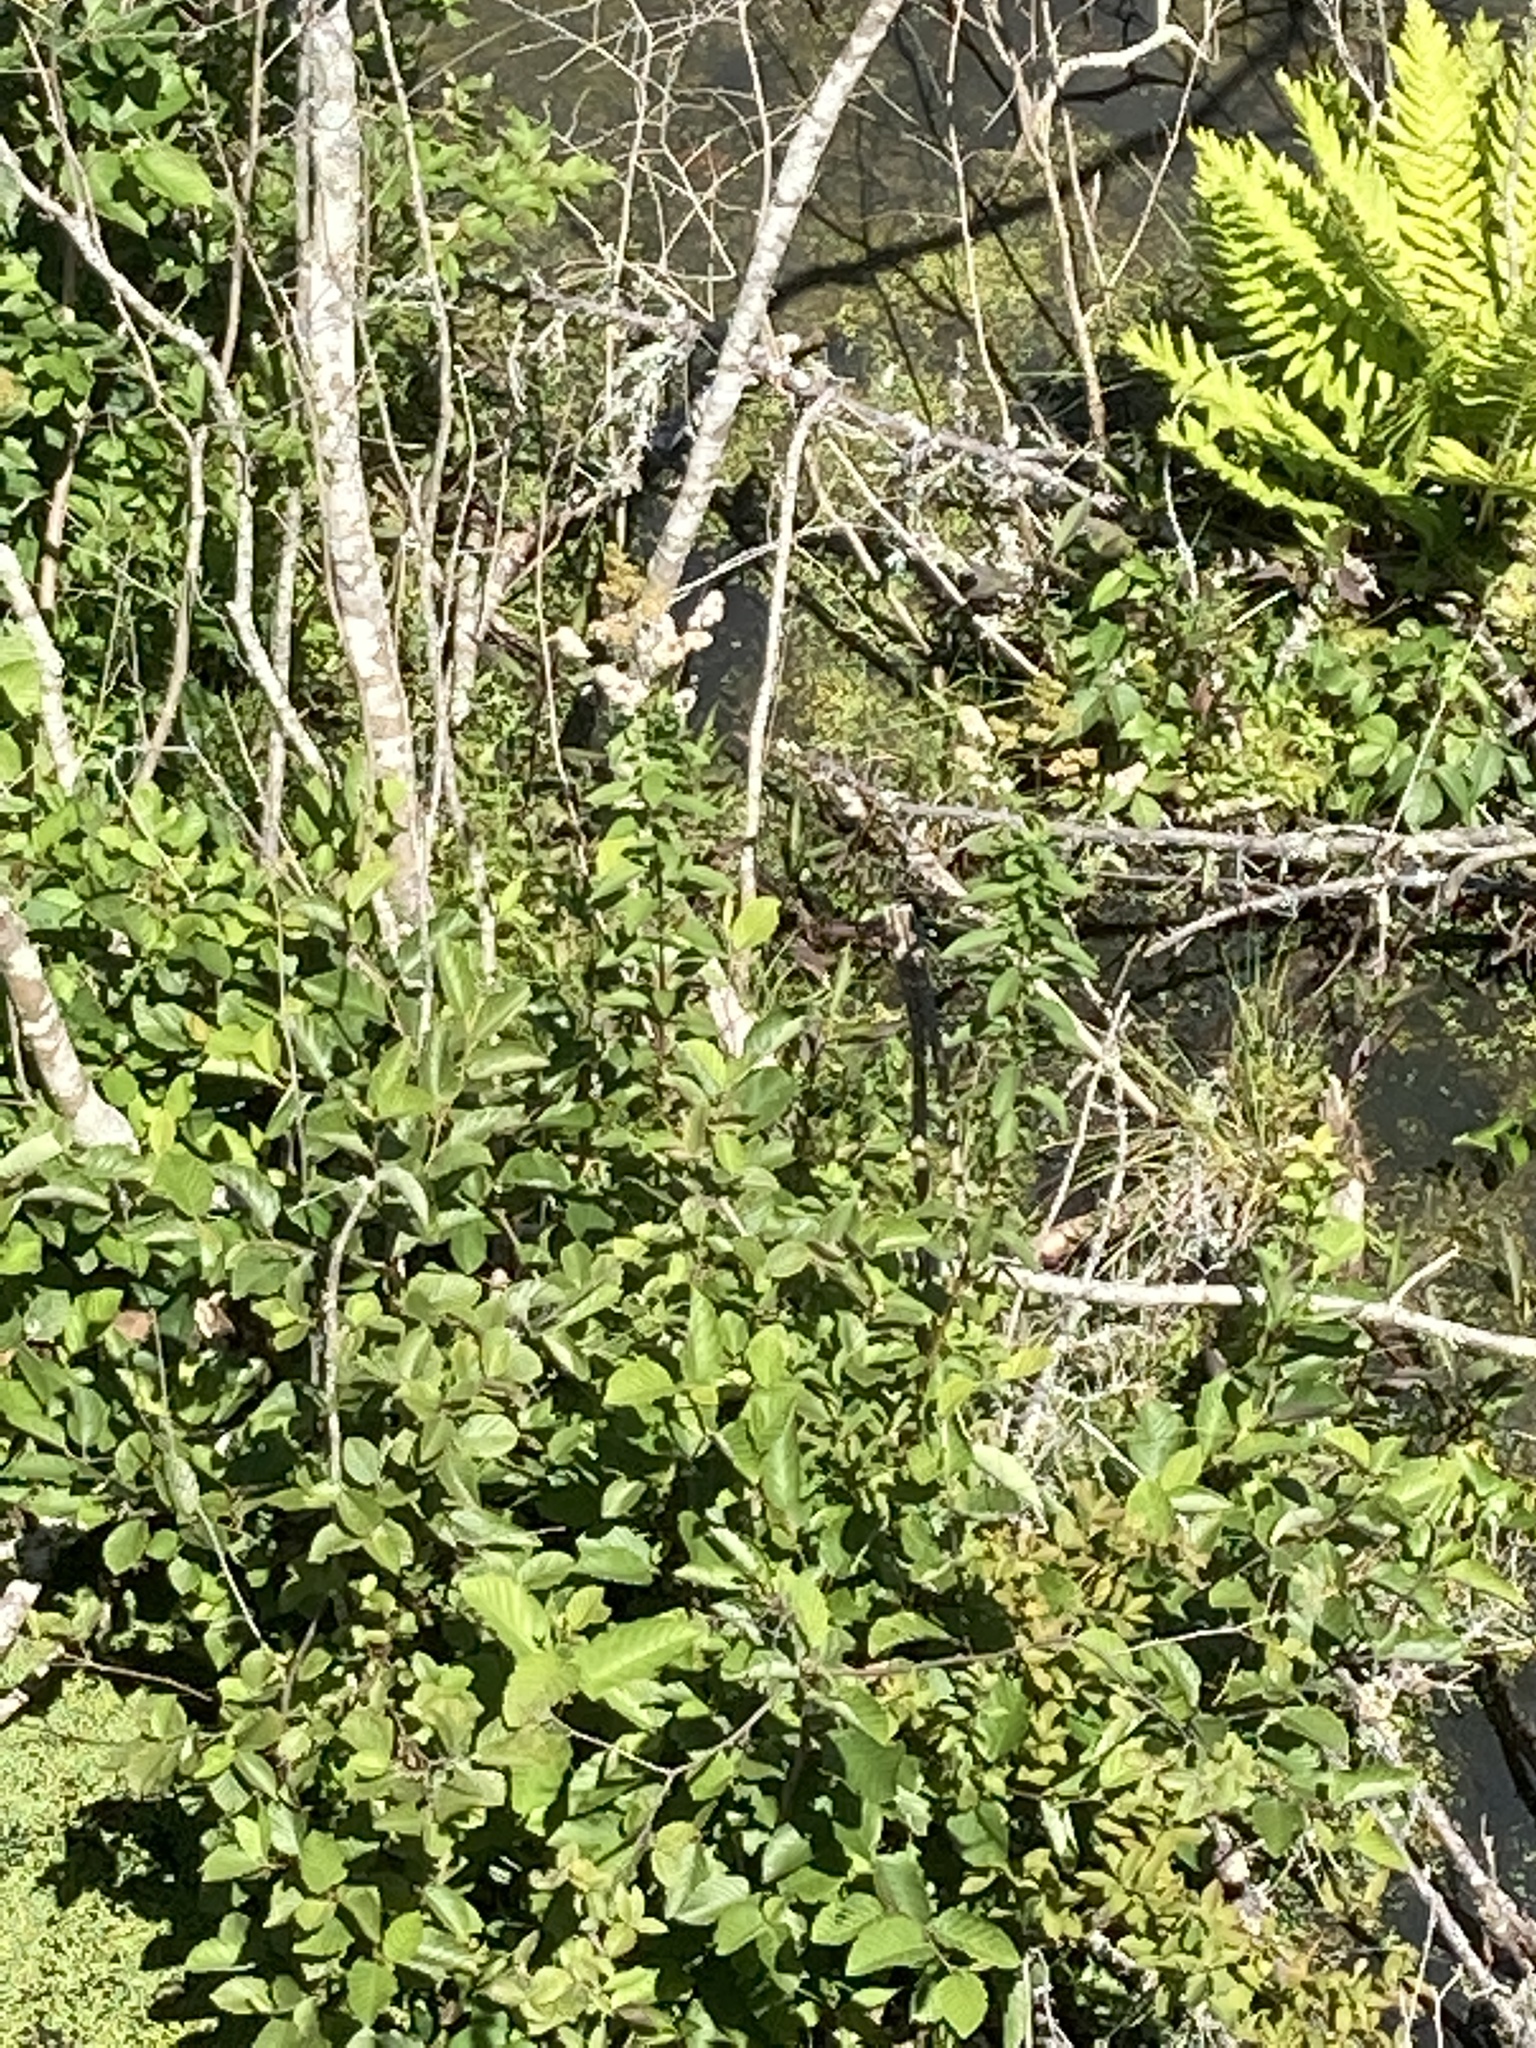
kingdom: Plantae
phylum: Tracheophyta
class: Magnoliopsida
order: Rosales
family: Rosaceae
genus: Spiraea
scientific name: Spiraea alba
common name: Pale bridewort
